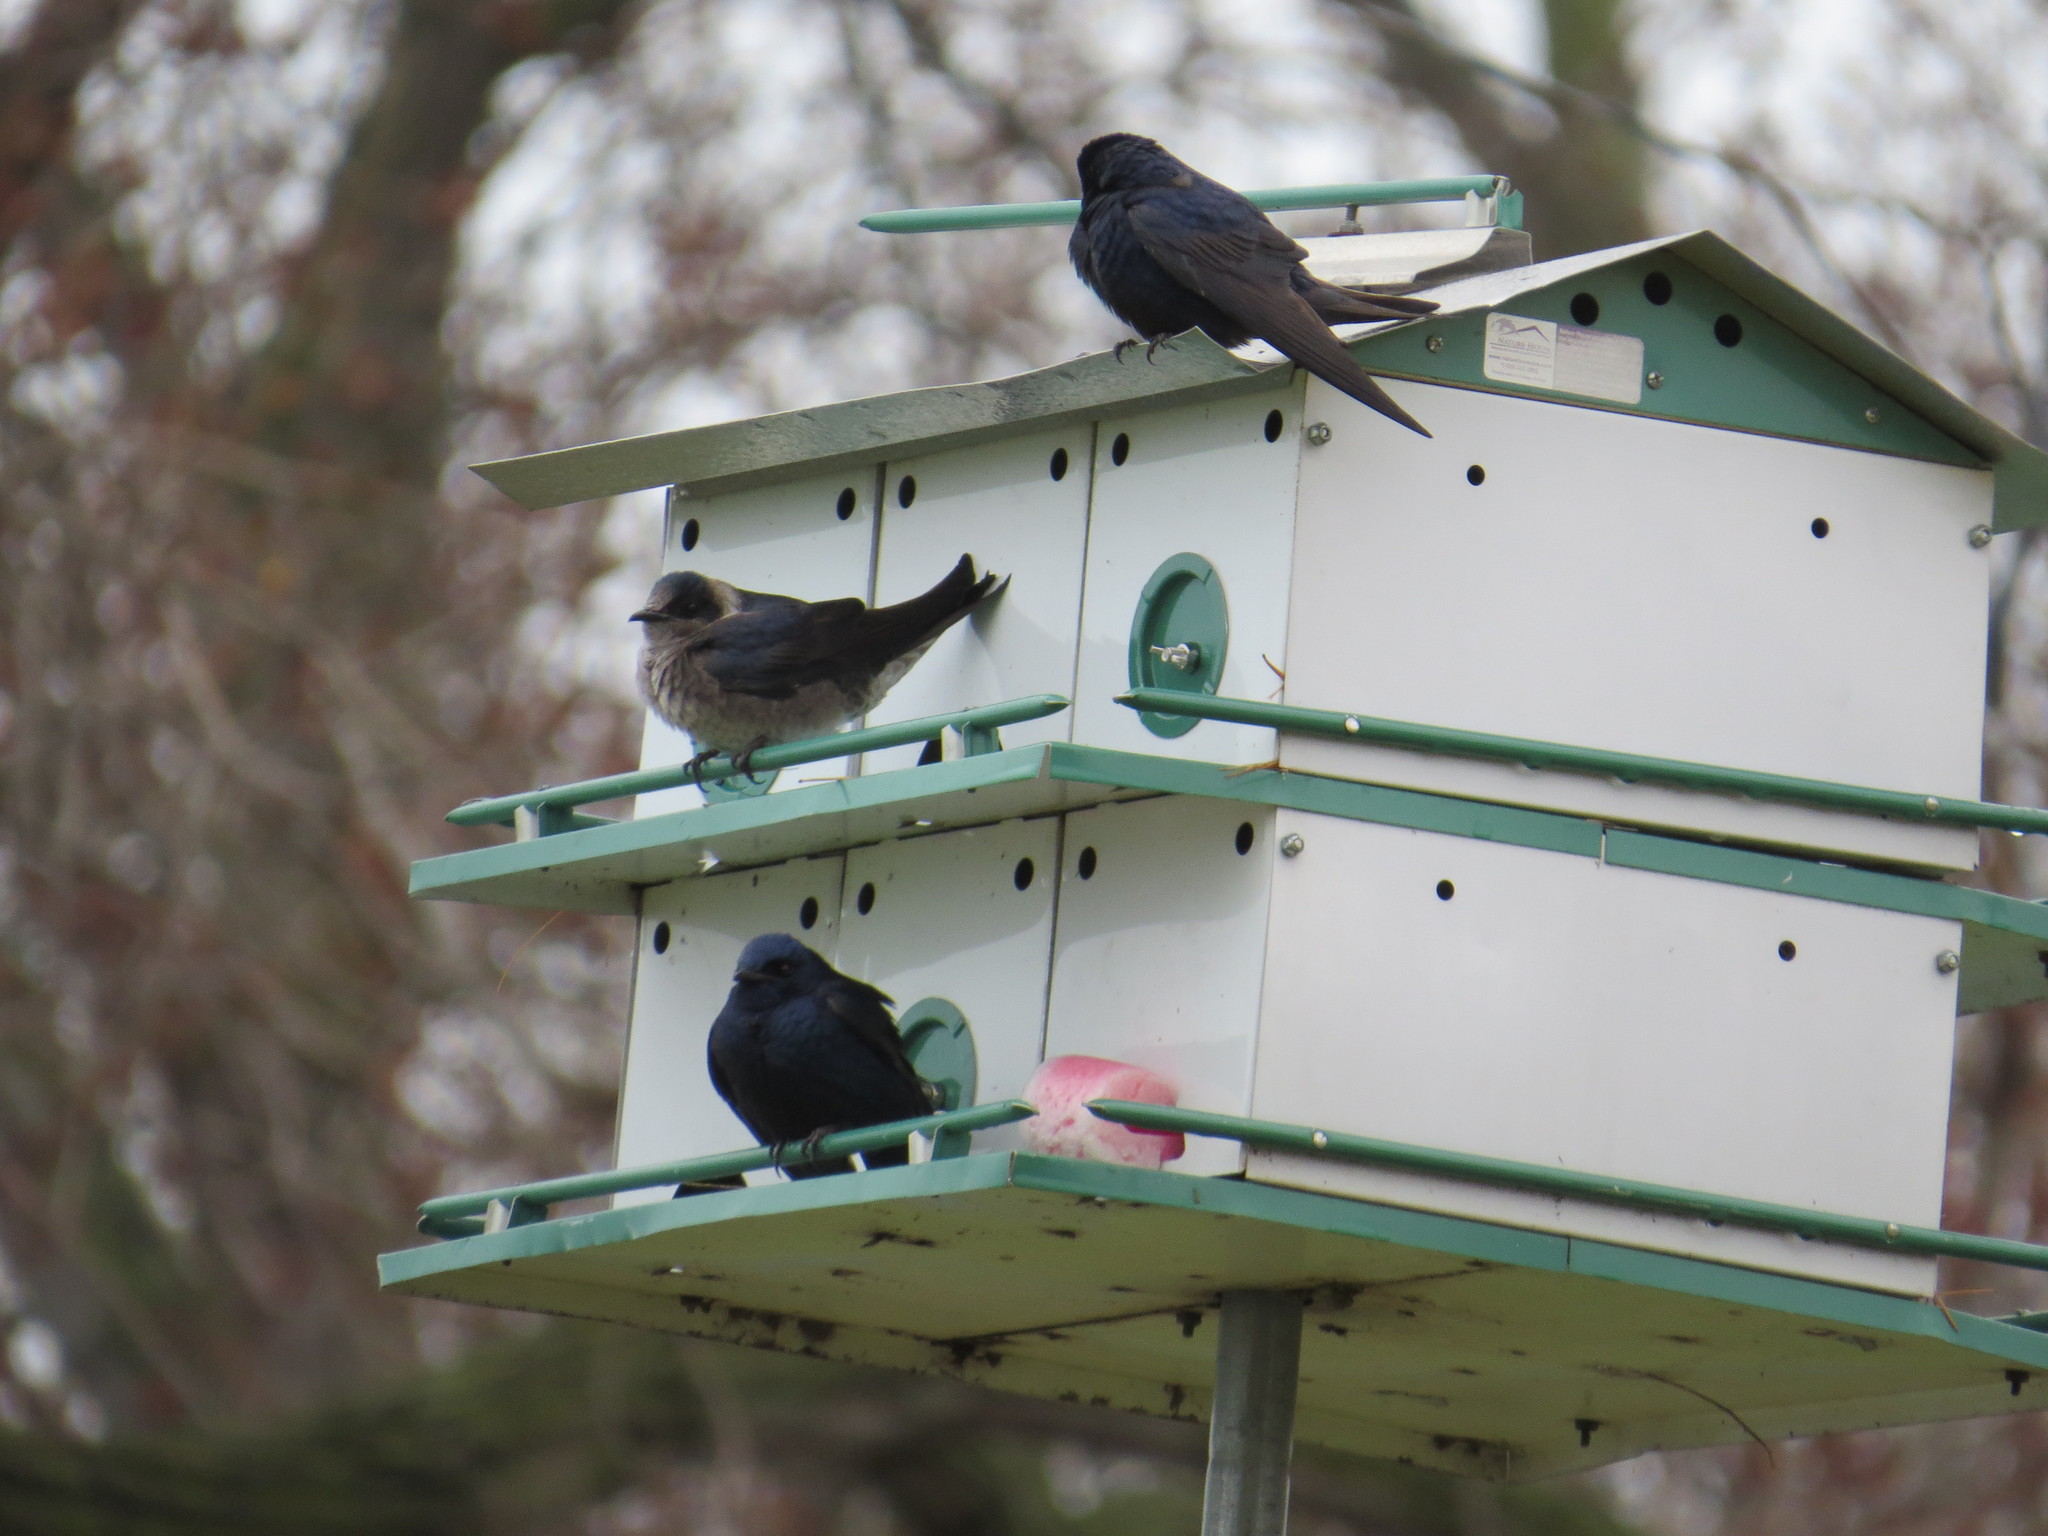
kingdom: Animalia
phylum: Chordata
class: Aves
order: Passeriformes
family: Hirundinidae
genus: Progne
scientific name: Progne subis
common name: Purple martin
